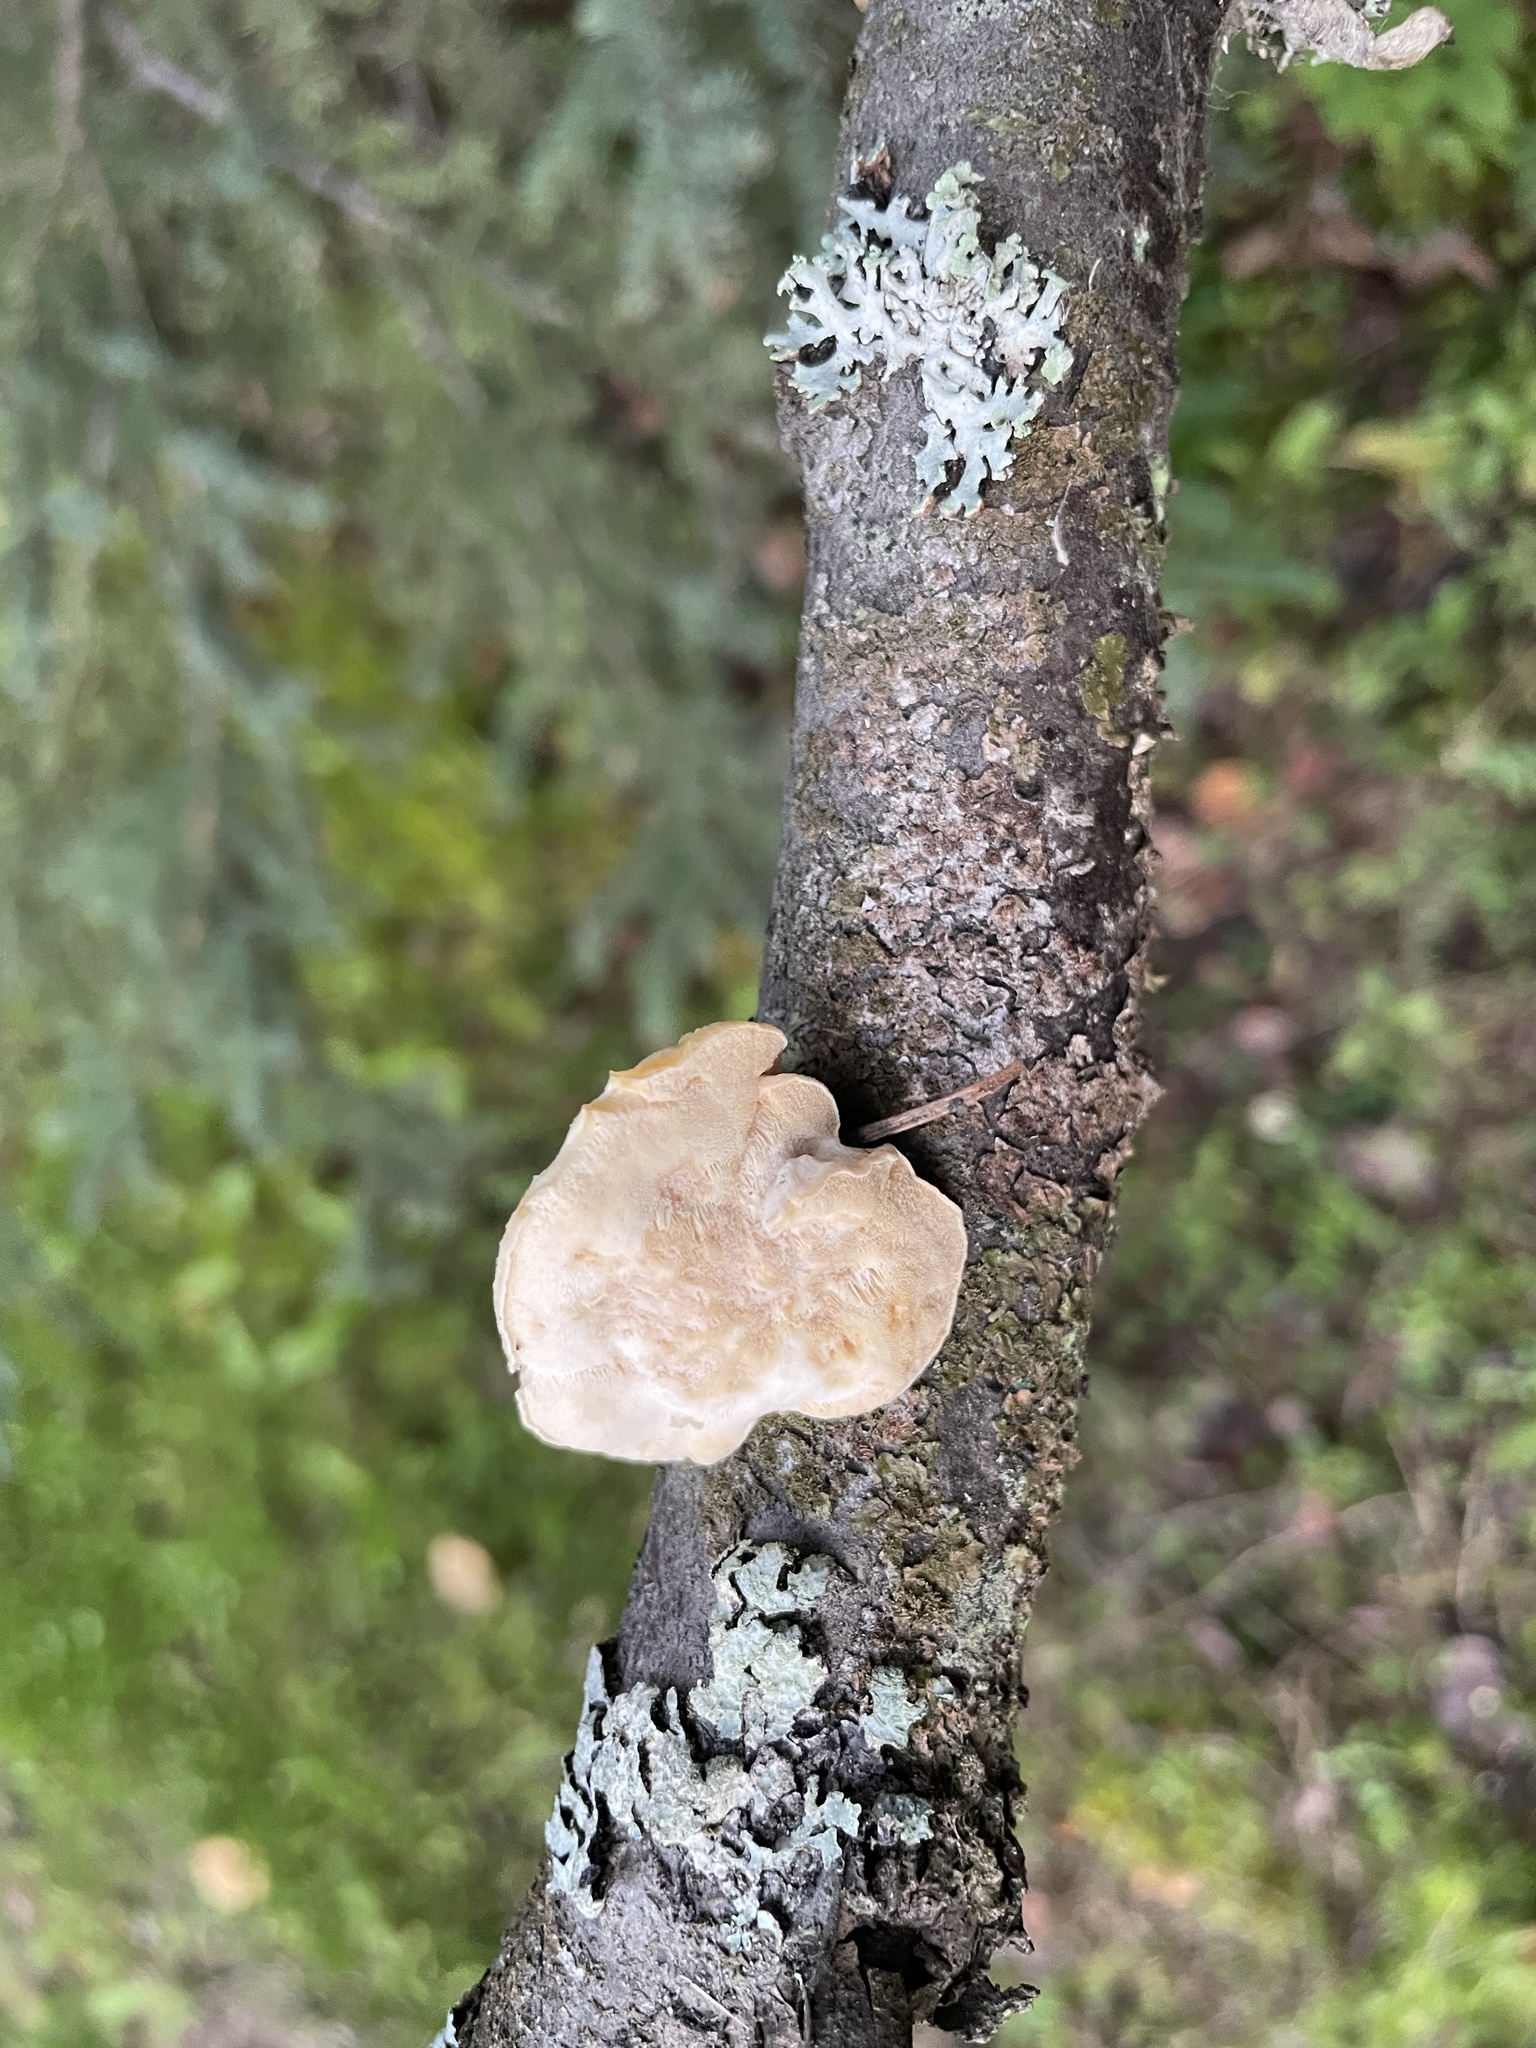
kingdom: Fungi
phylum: Basidiomycota
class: Agaricomycetes
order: Polyporales
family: Incrustoporiaceae
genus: Tyromyces
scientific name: Tyromyces chioneus
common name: White cheese polypore
